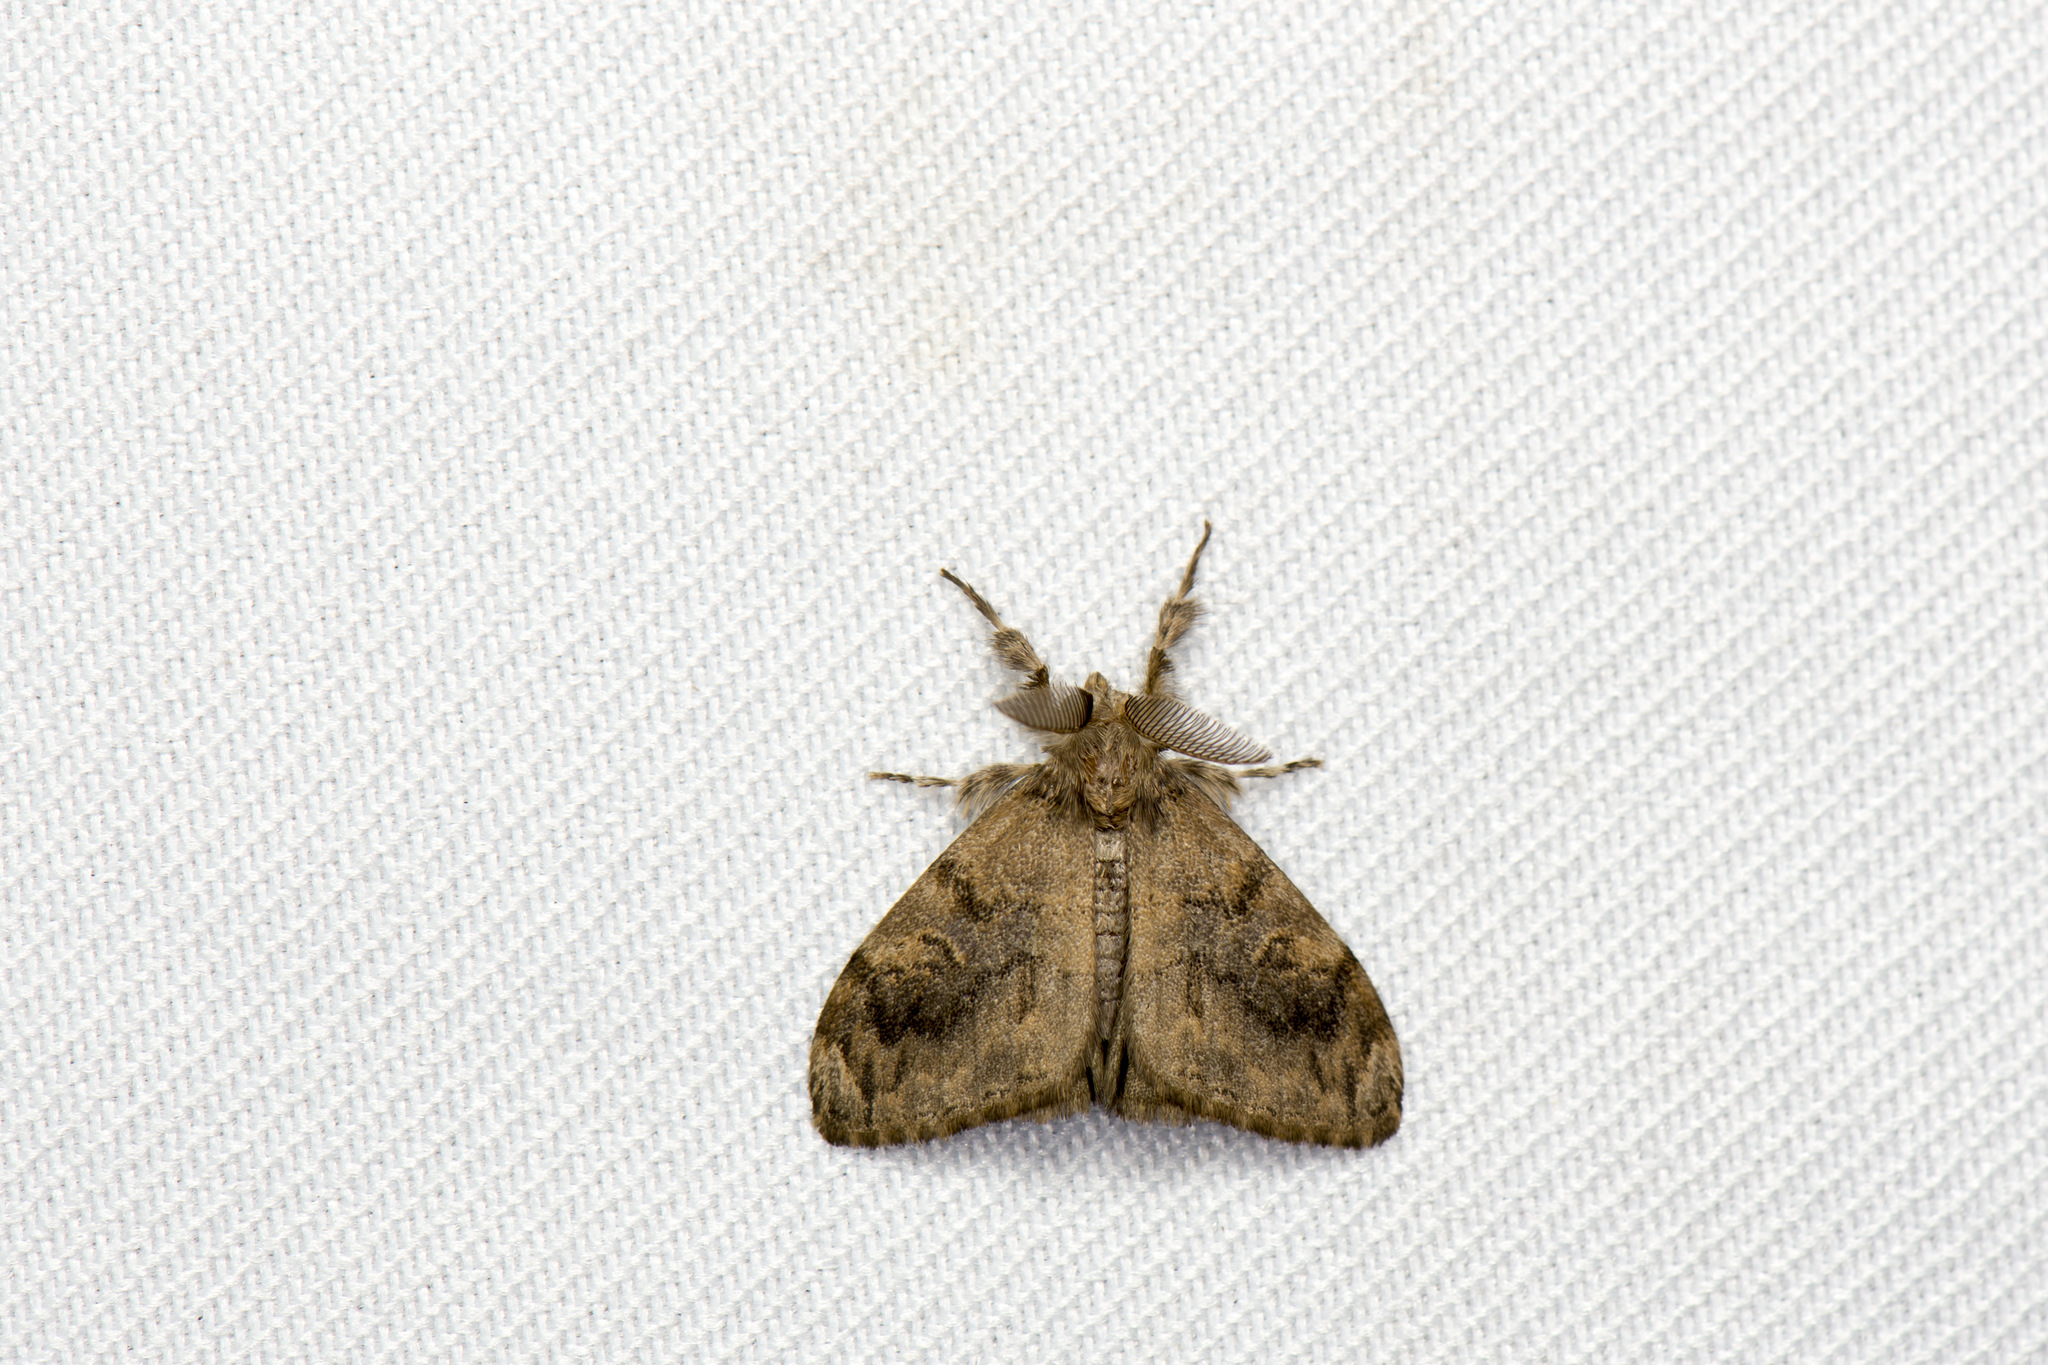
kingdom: Animalia
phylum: Arthropoda
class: Insecta
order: Lepidoptera
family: Erebidae
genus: Orgyia
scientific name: Orgyia postica
